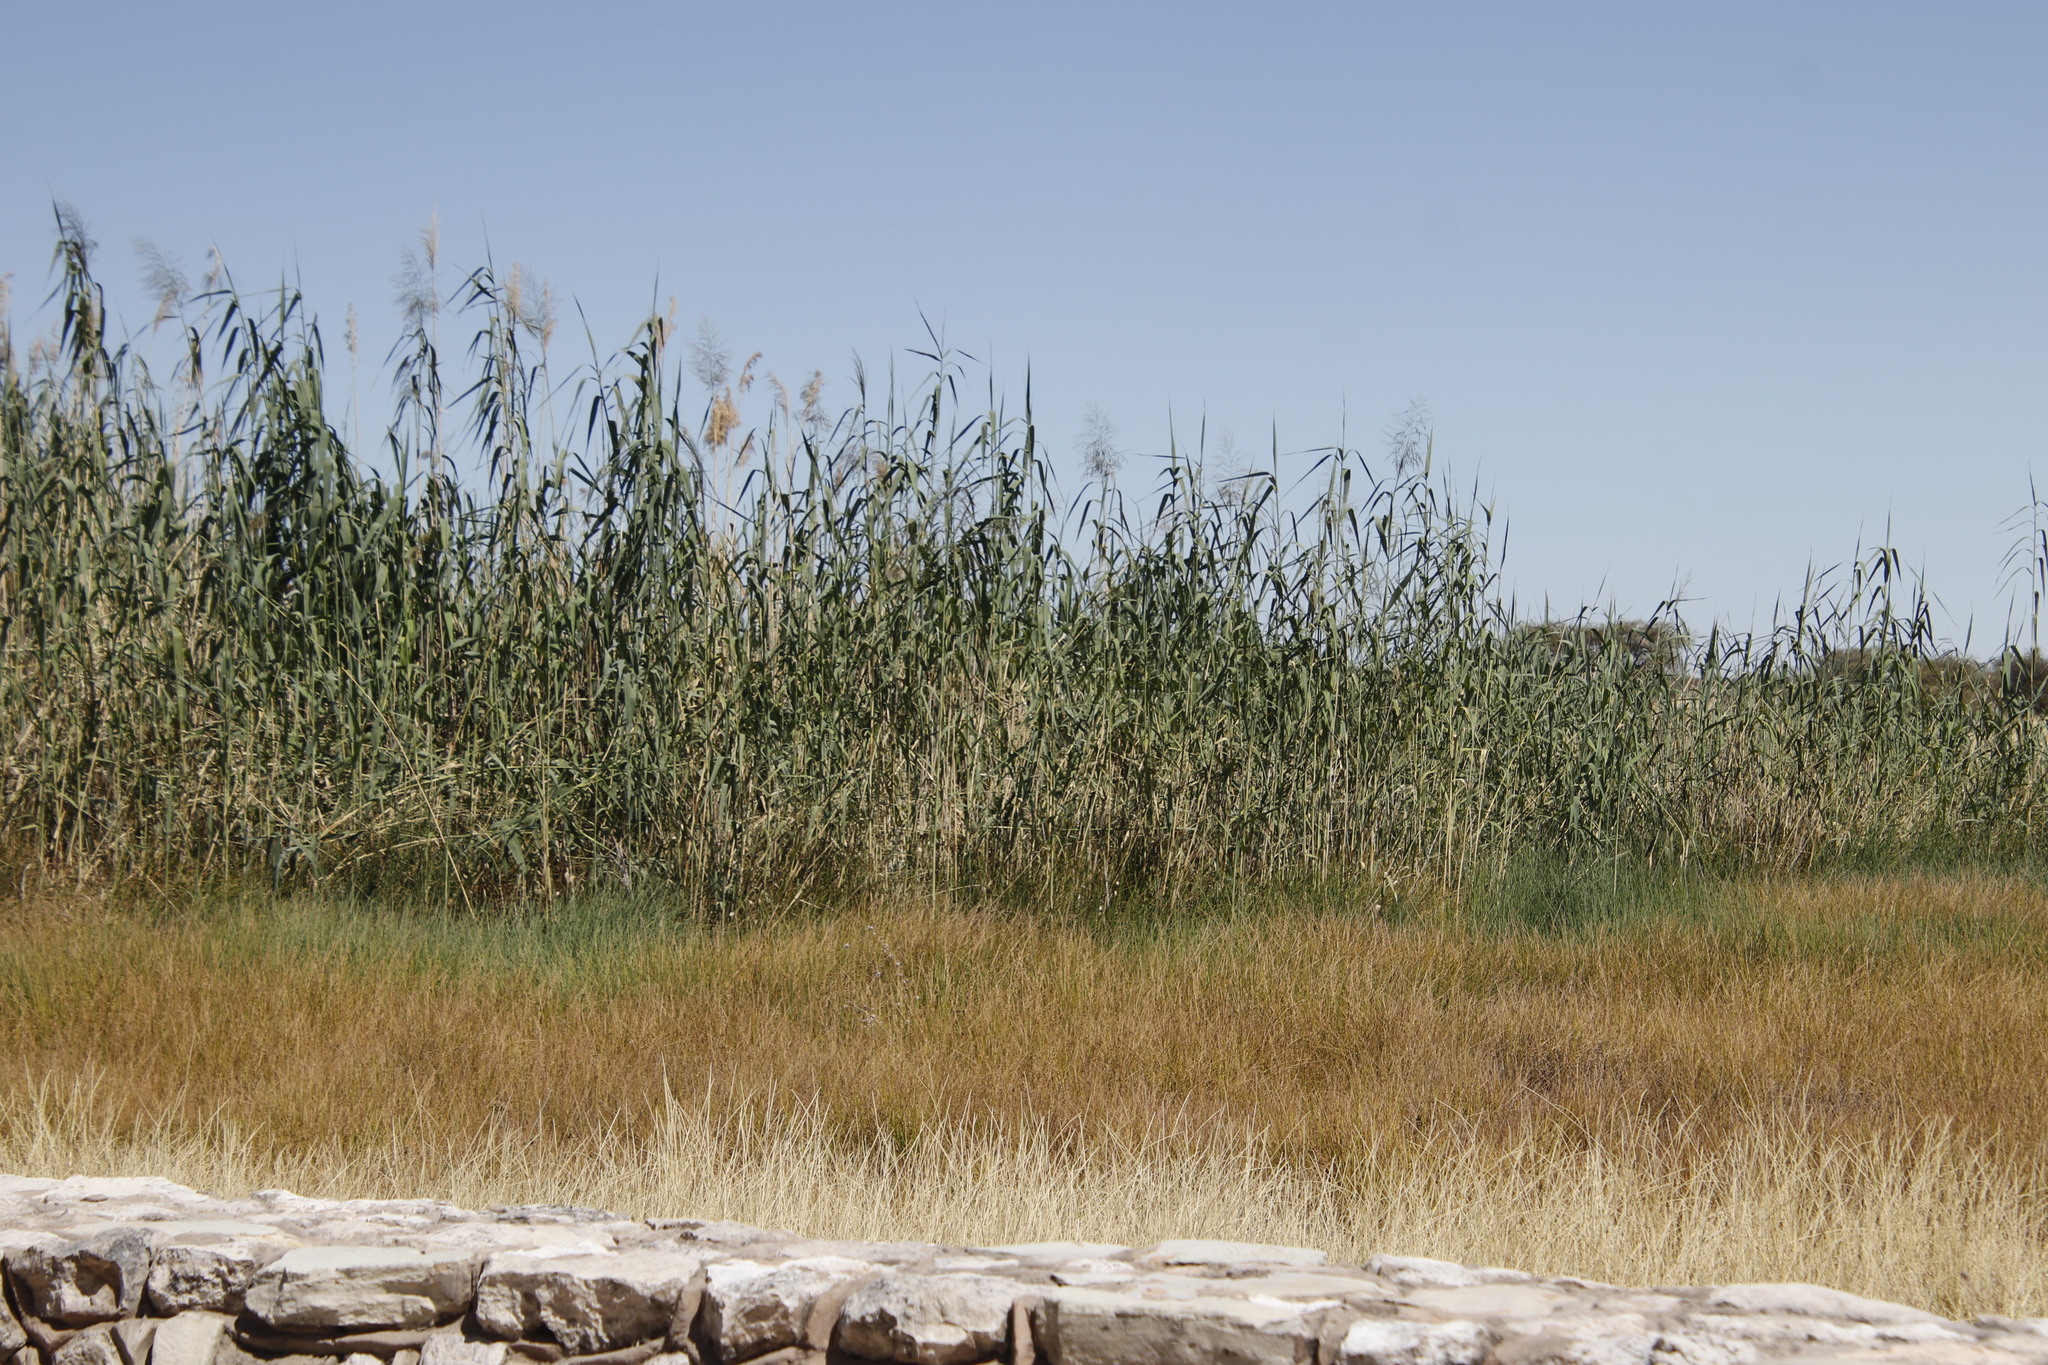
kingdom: Plantae
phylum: Tracheophyta
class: Liliopsida
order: Poales
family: Poaceae
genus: Phragmites
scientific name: Phragmites australis
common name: Common reed
